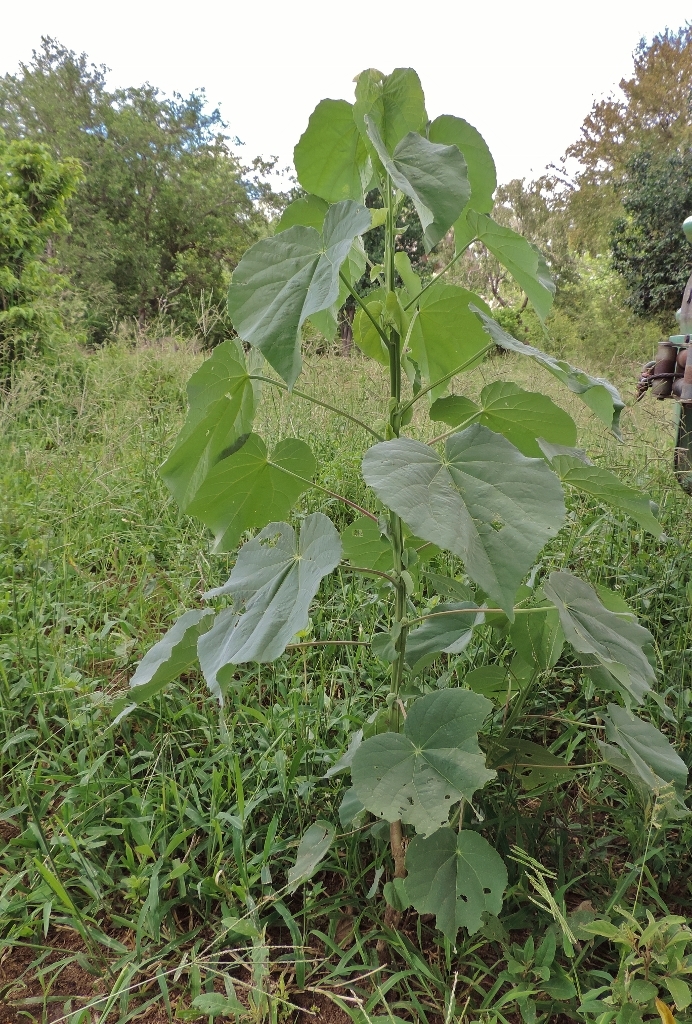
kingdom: Plantae
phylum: Tracheophyta
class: Magnoliopsida
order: Malvales
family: Malvaceae
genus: Abutilon
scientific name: Abutilon angulatum
